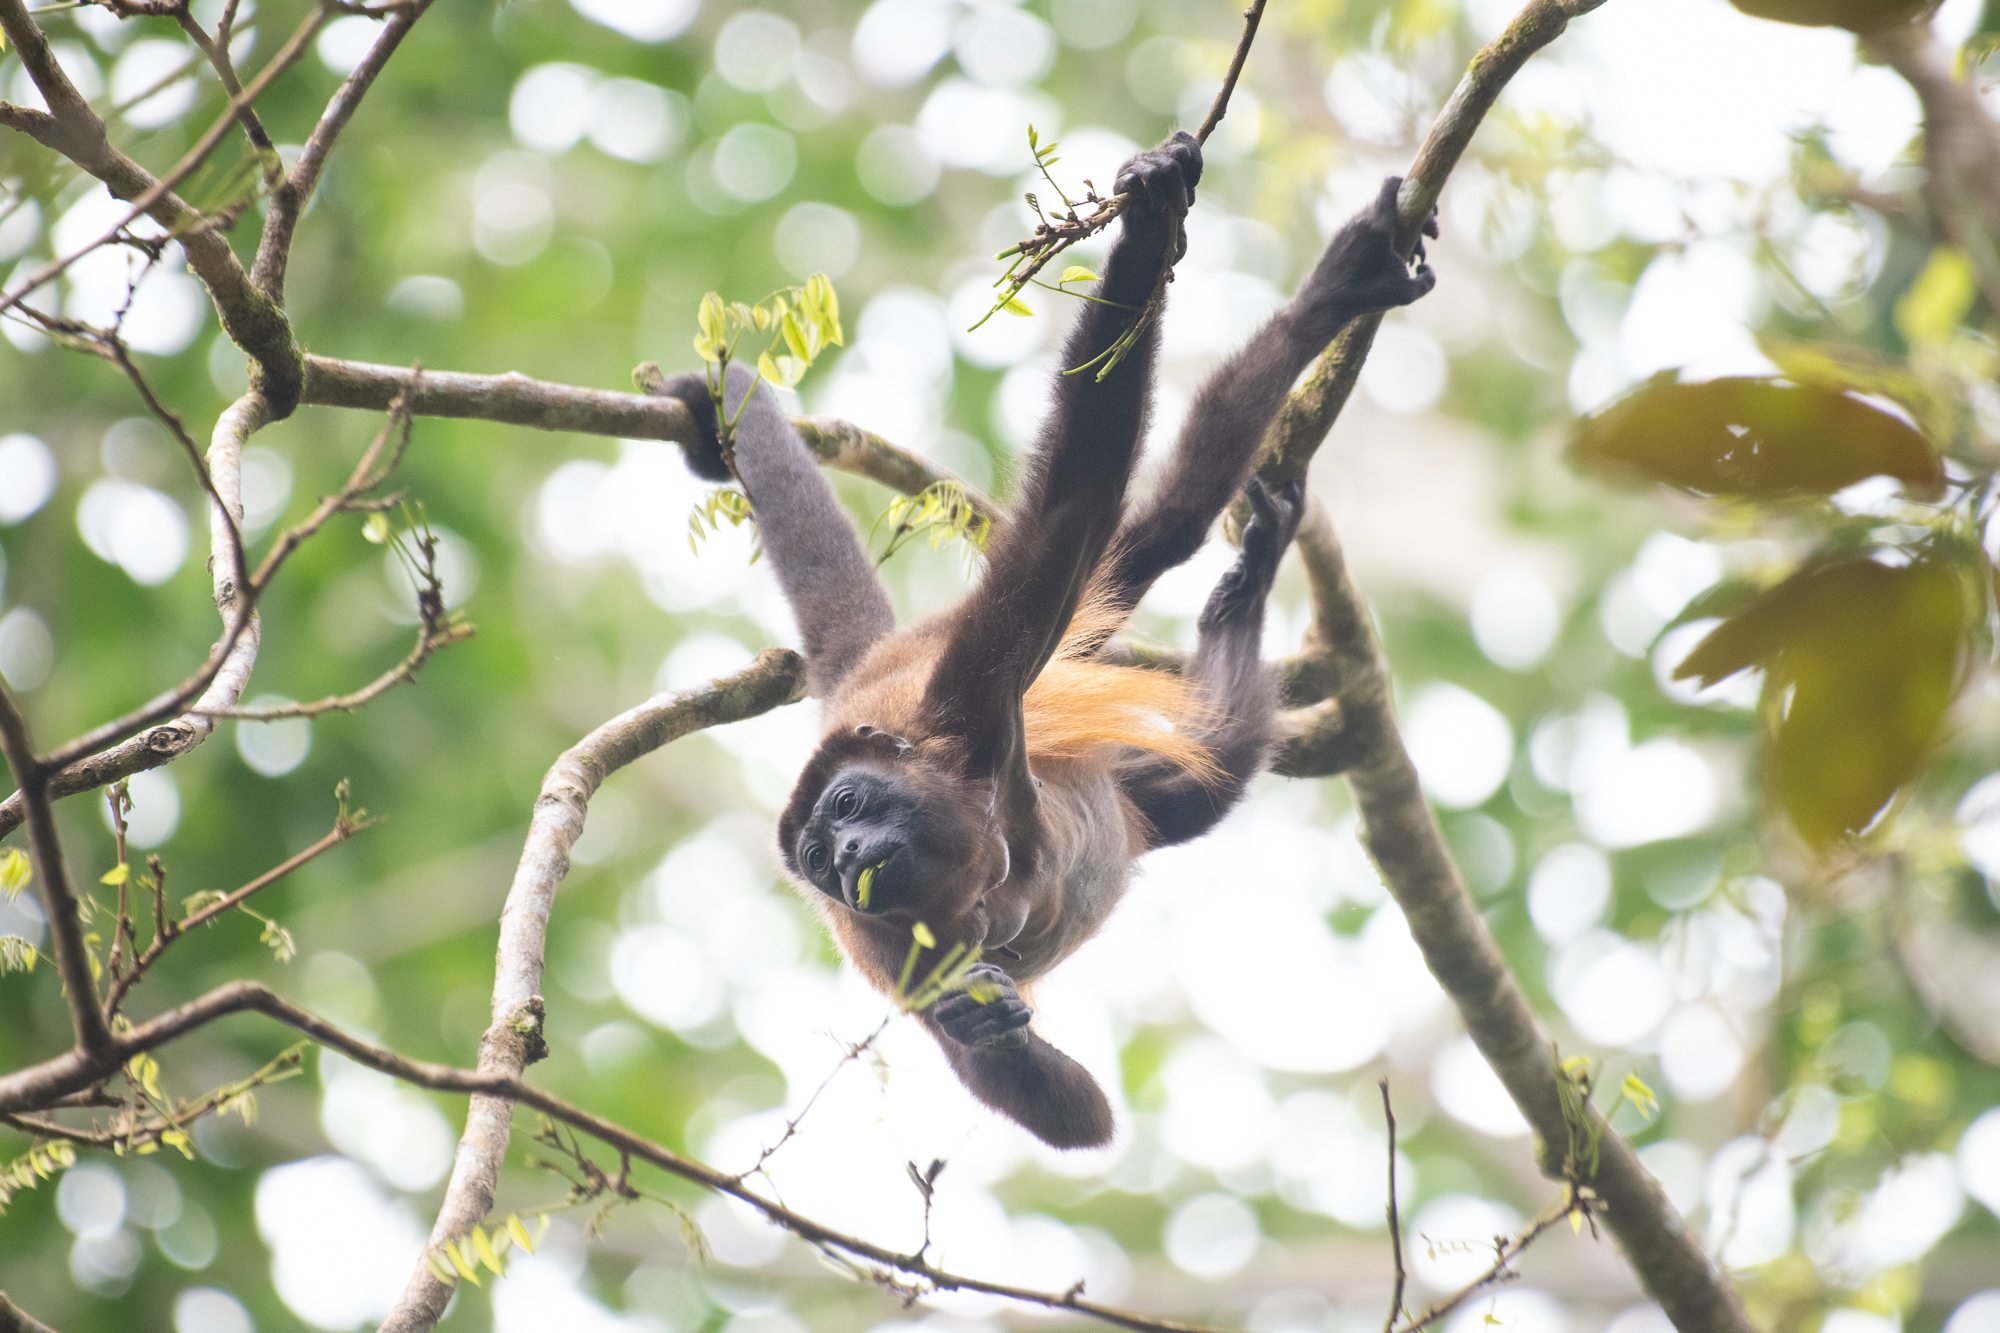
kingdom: Animalia
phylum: Chordata
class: Mammalia
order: Primates
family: Atelidae
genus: Alouatta
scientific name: Alouatta palliata
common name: Mantled howler
